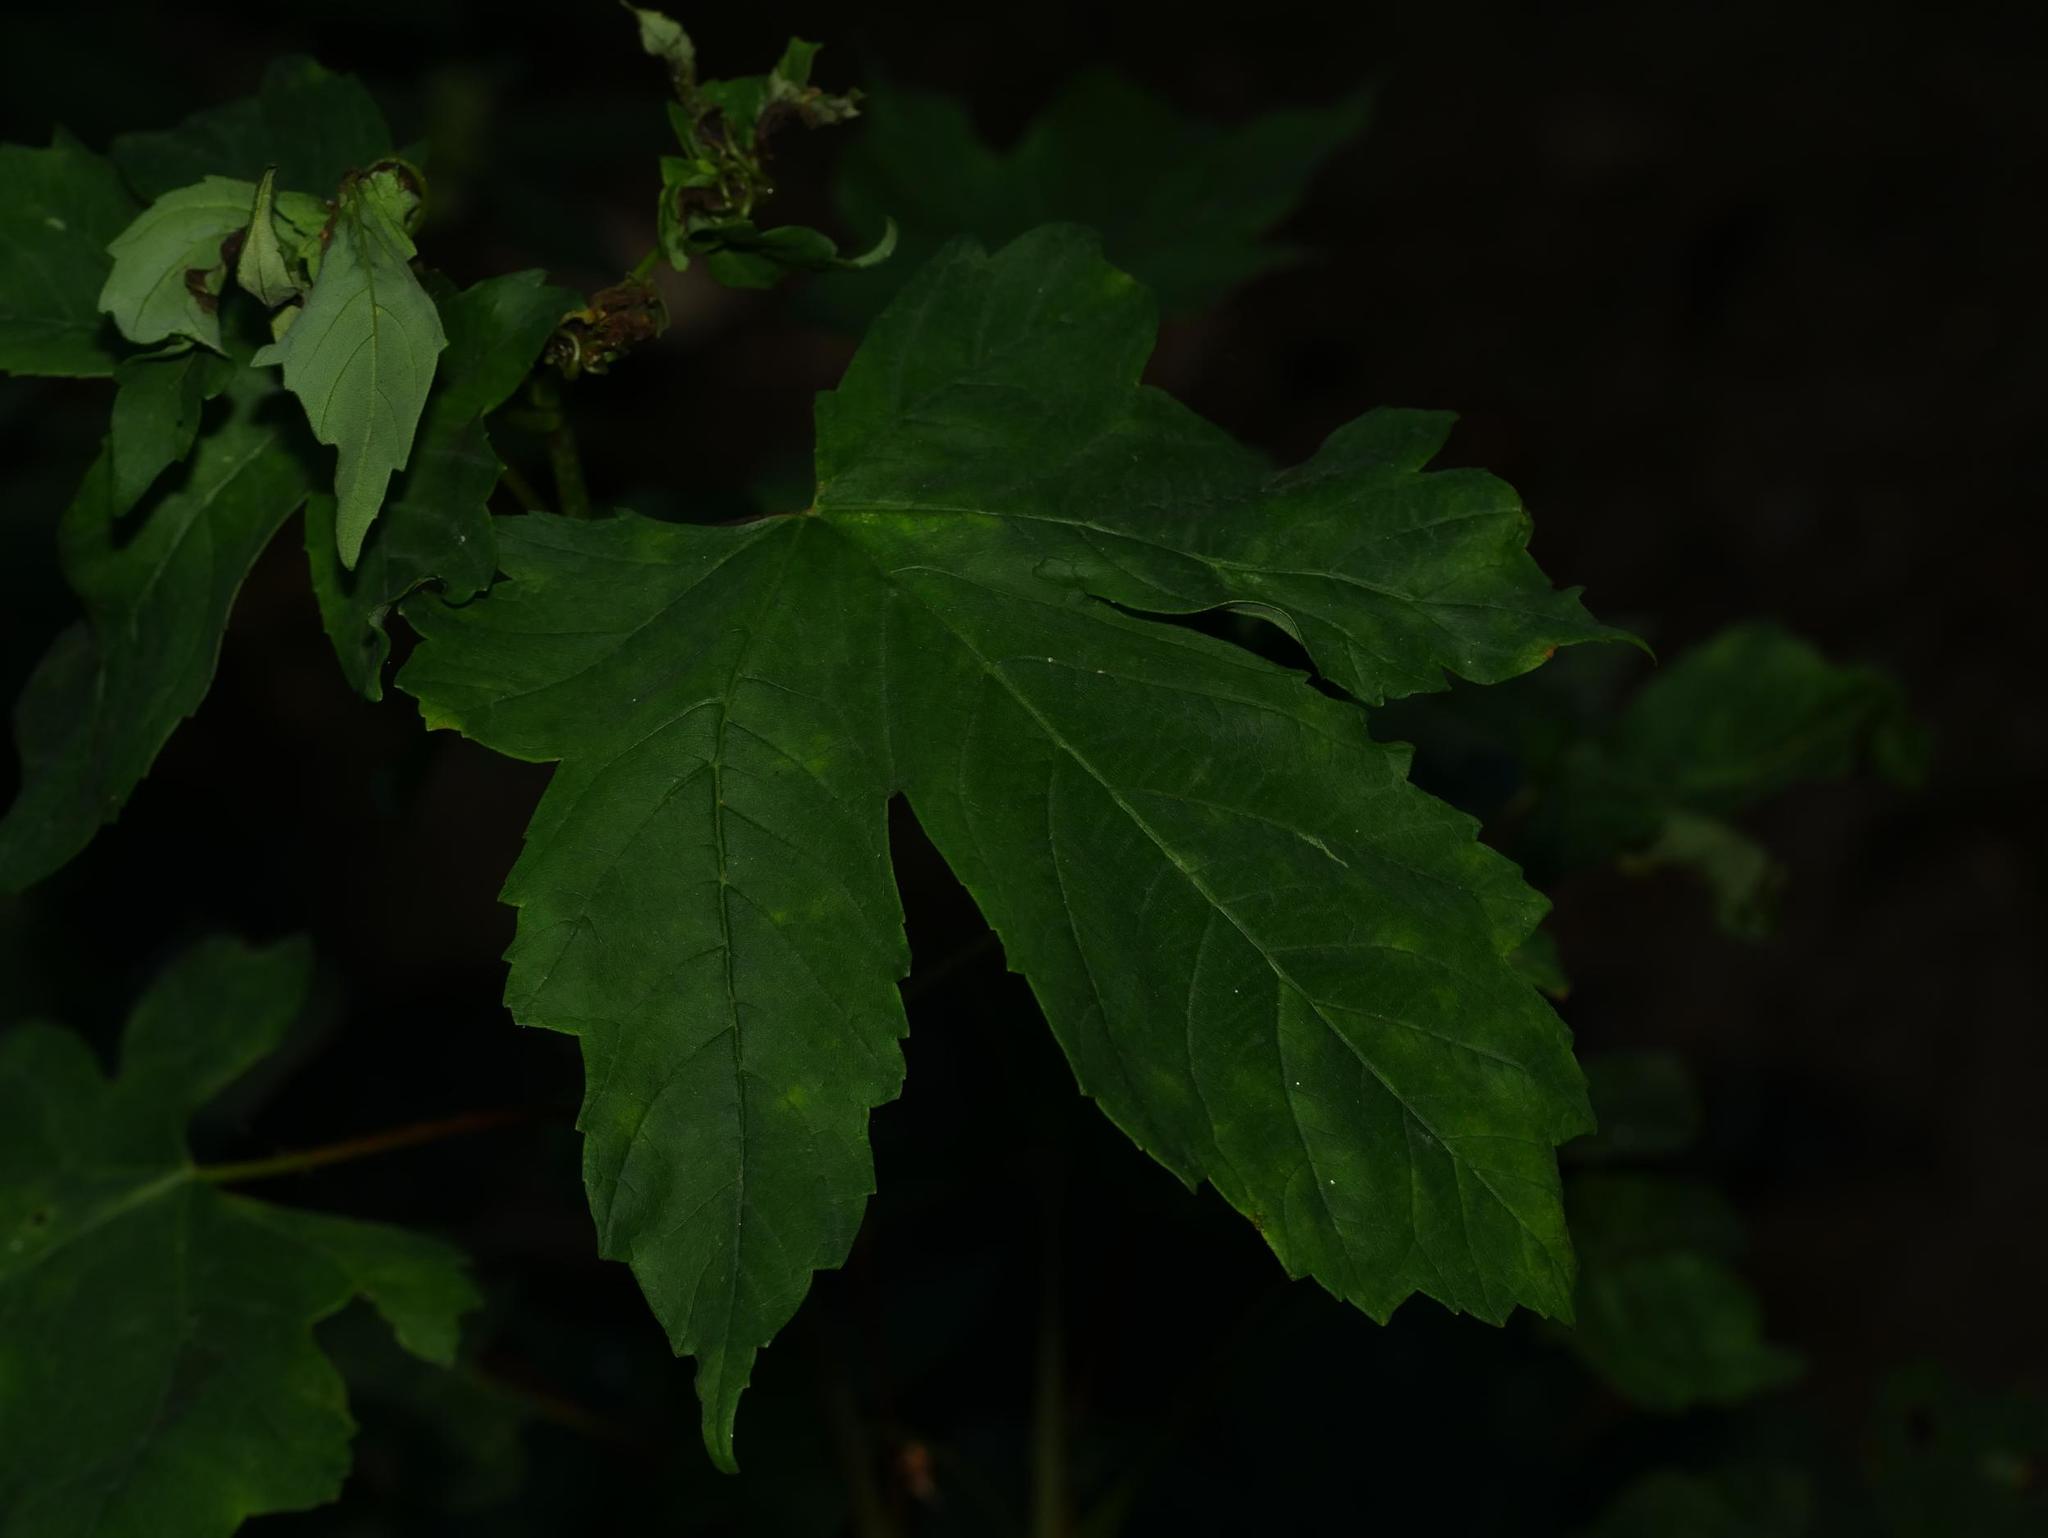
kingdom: Plantae
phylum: Tracheophyta
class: Magnoliopsida
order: Sapindales
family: Sapindaceae
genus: Acer
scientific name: Acer pseudoplatanus
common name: Sycamore
